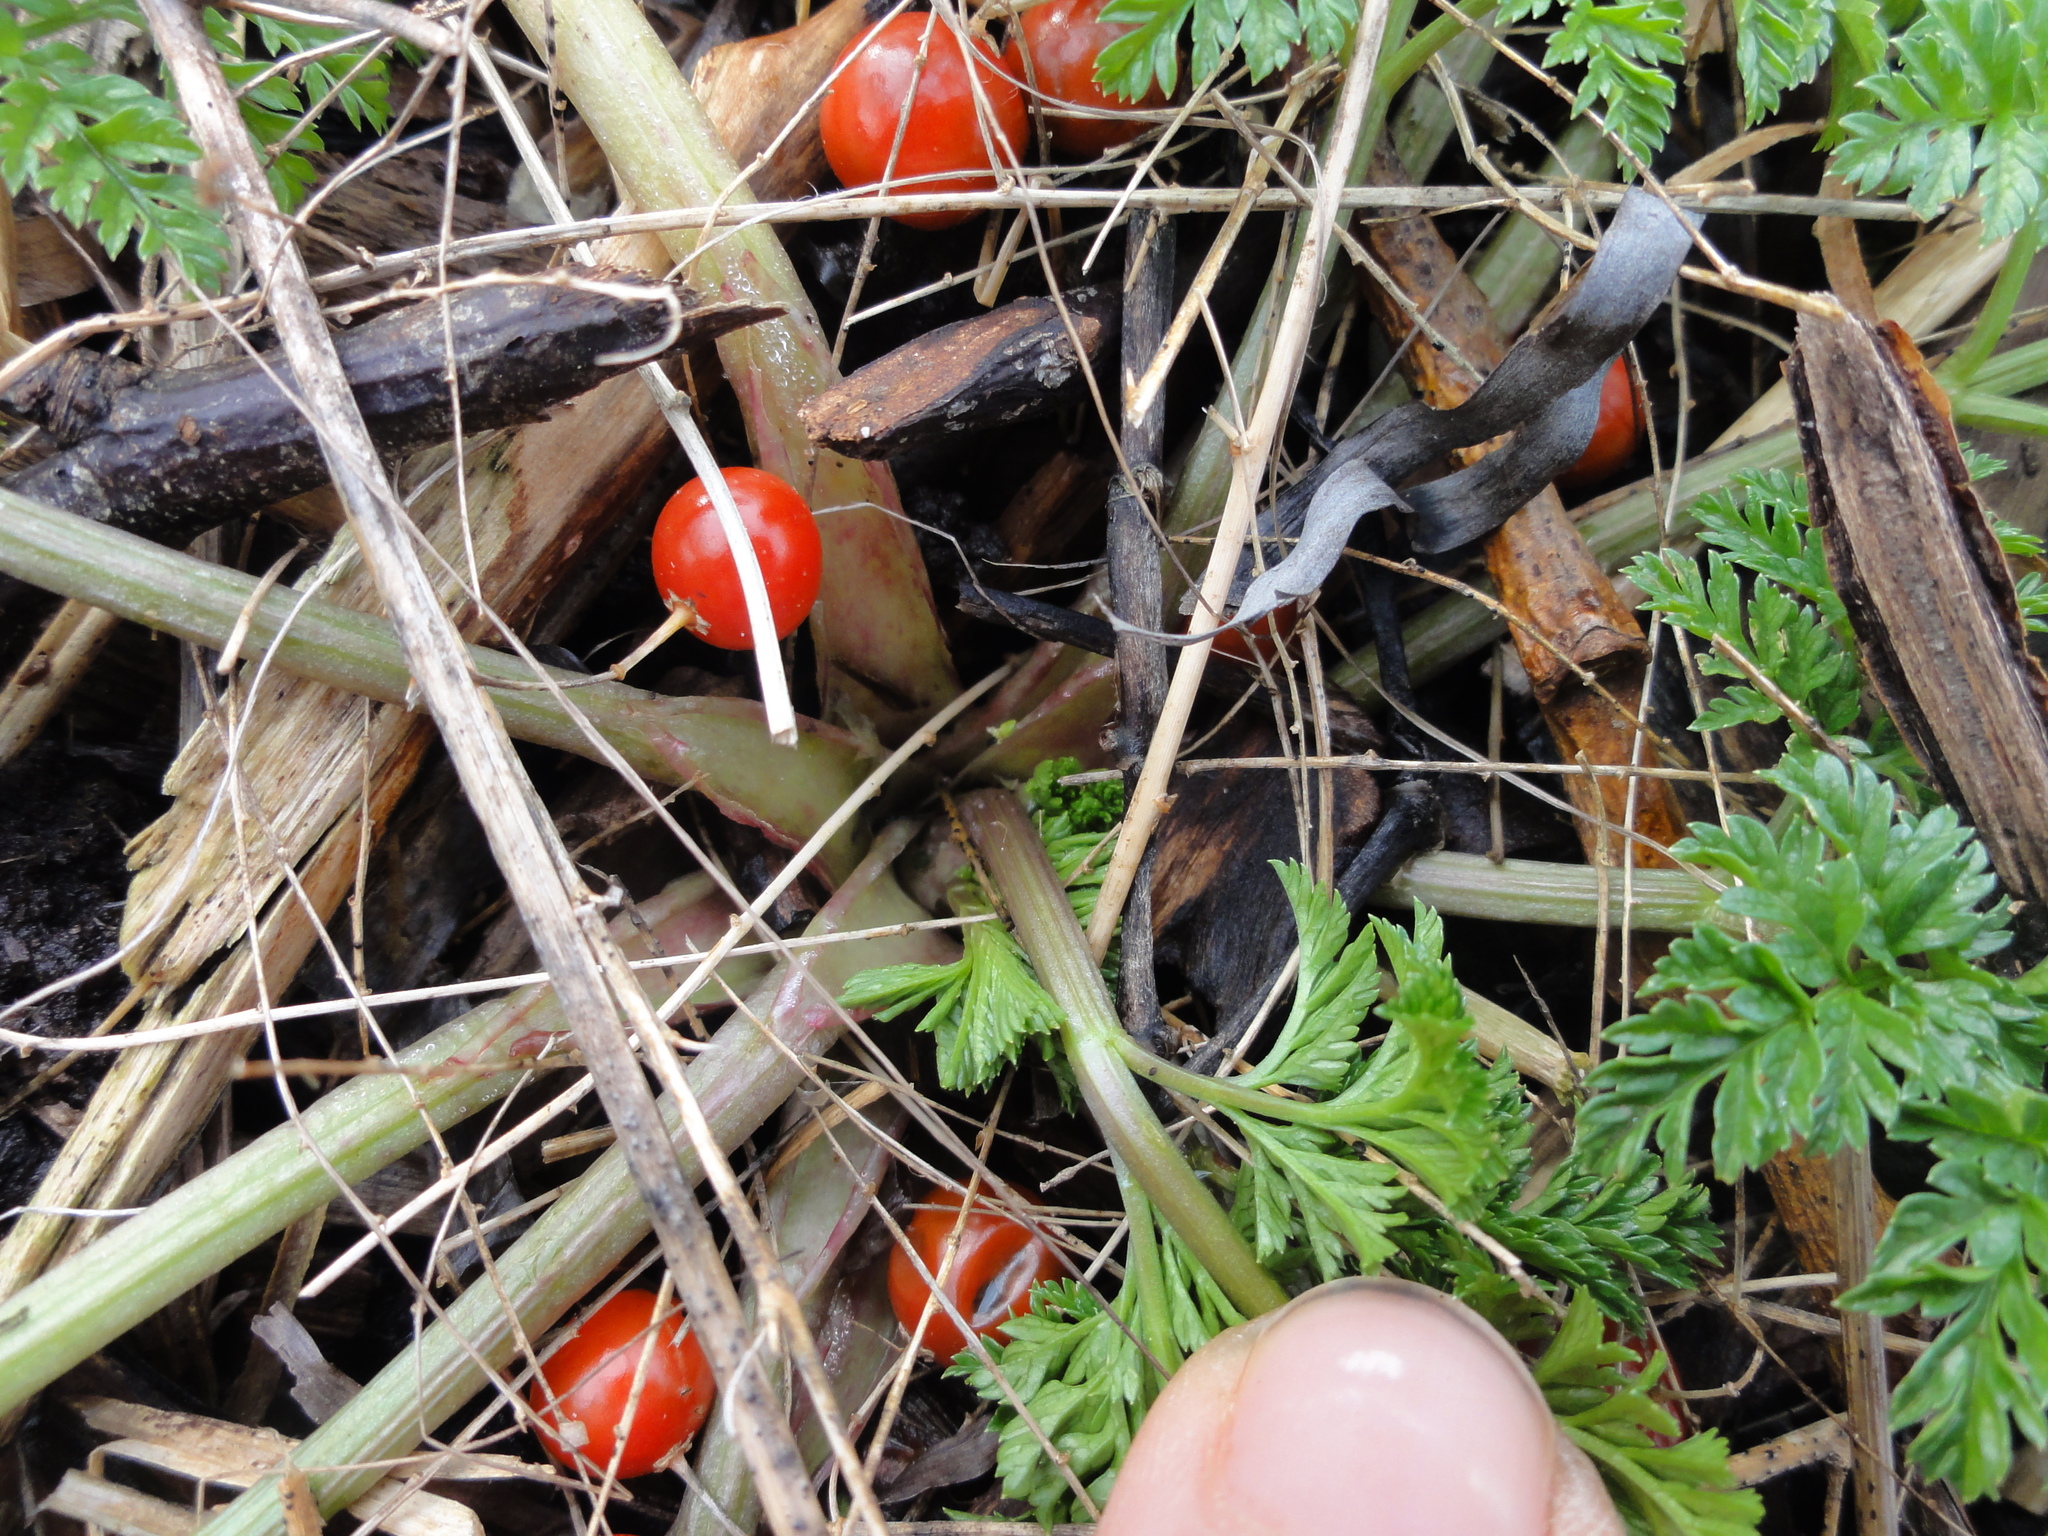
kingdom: Plantae
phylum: Tracheophyta
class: Magnoliopsida
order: Apiales
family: Apiaceae
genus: Conium
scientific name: Conium maculatum
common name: Hemlock
